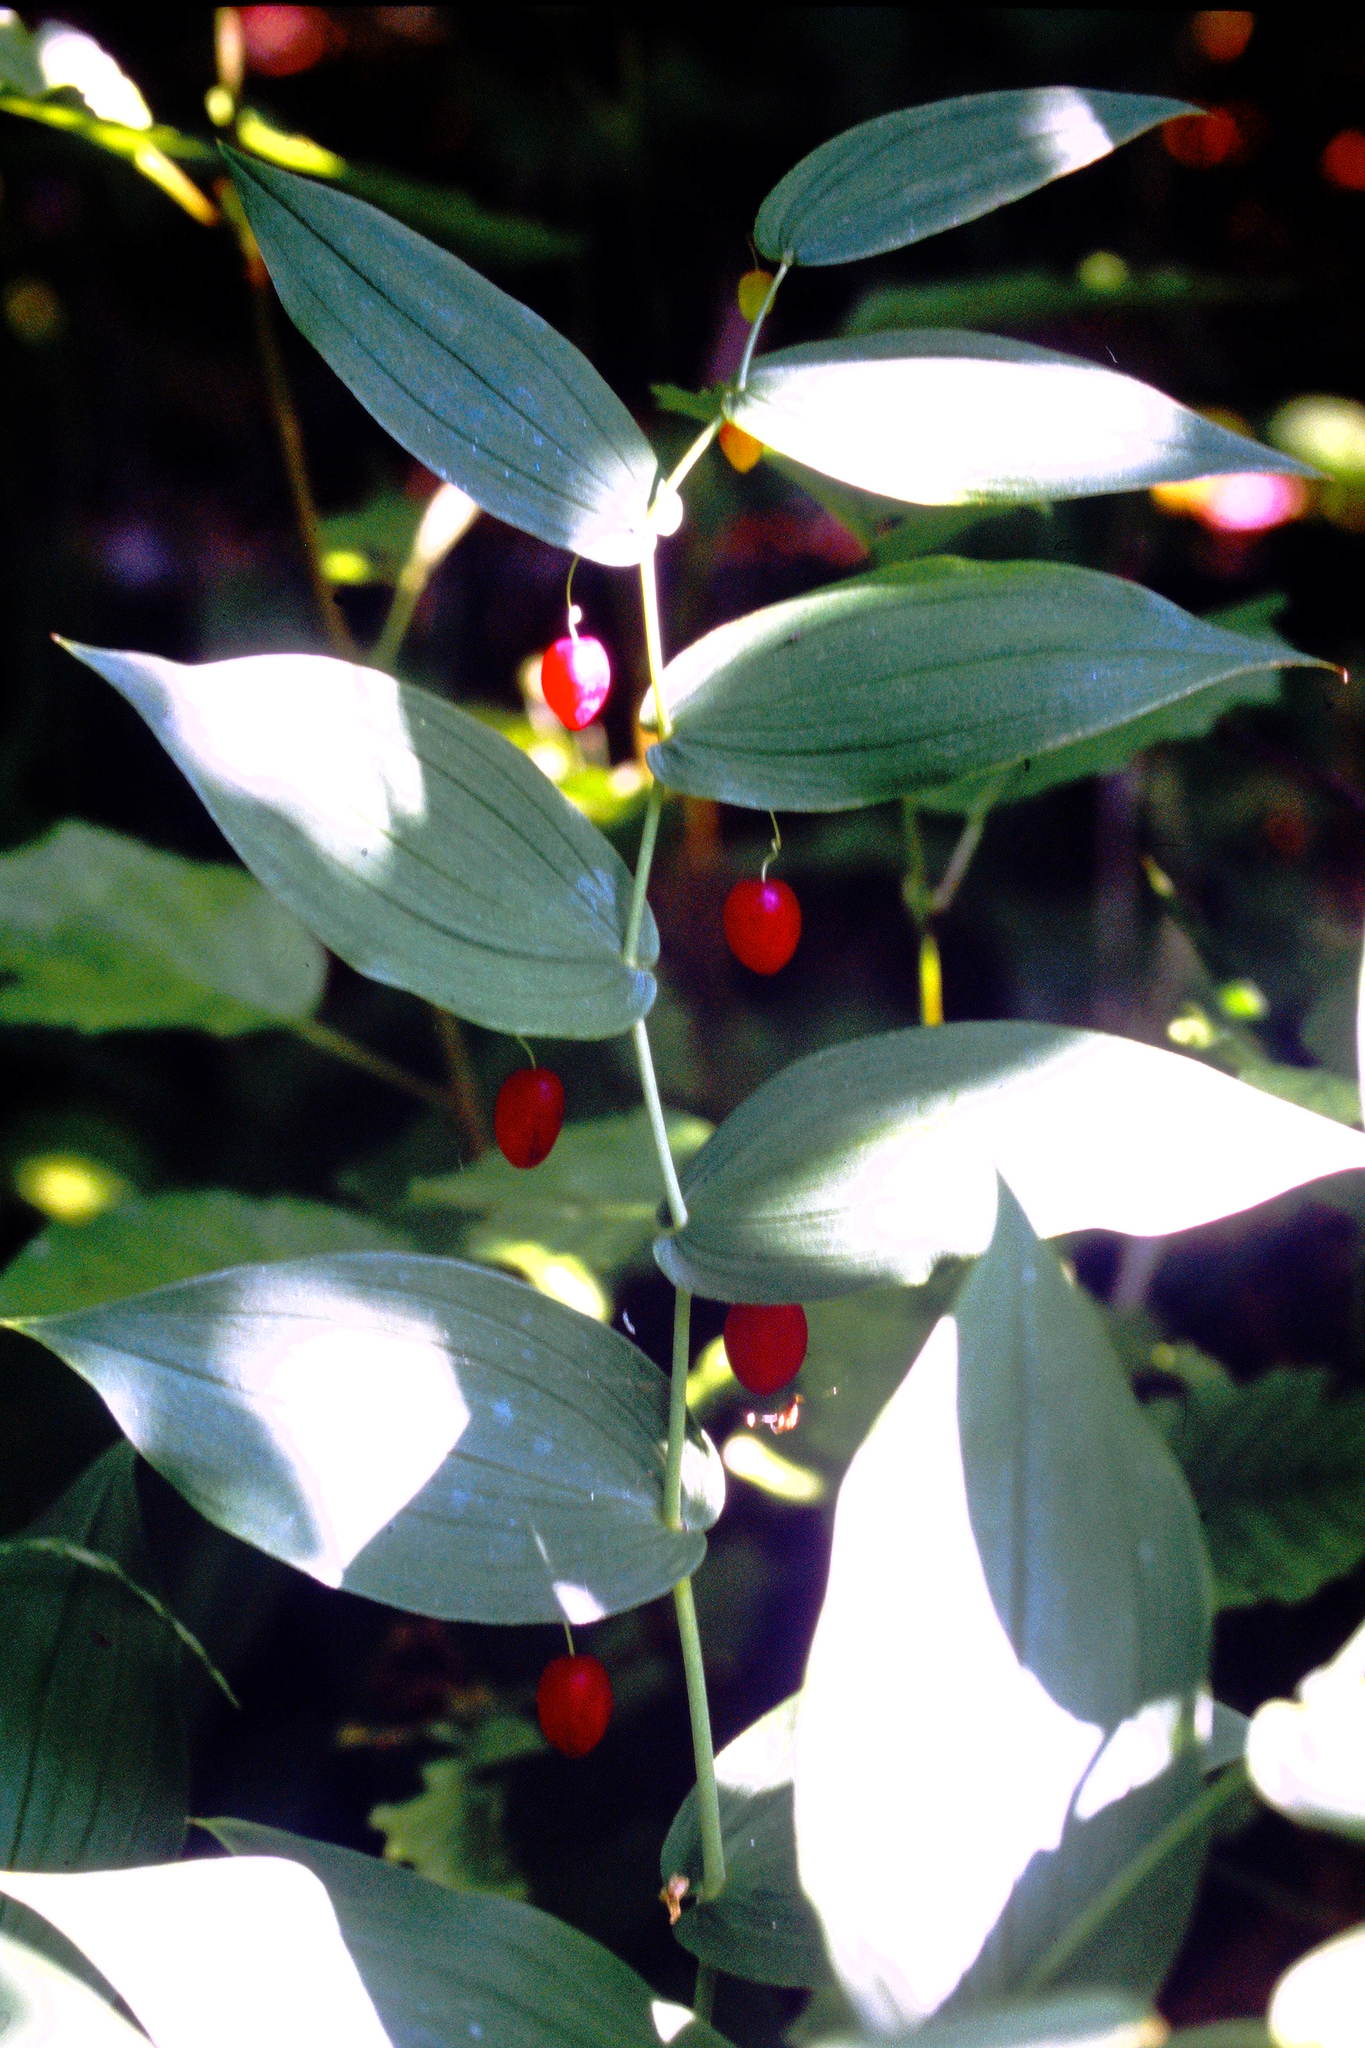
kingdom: Plantae
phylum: Tracheophyta
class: Liliopsida
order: Liliales
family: Liliaceae
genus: Streptopus
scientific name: Streptopus amplexifolius
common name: Clasp twisted stalk
